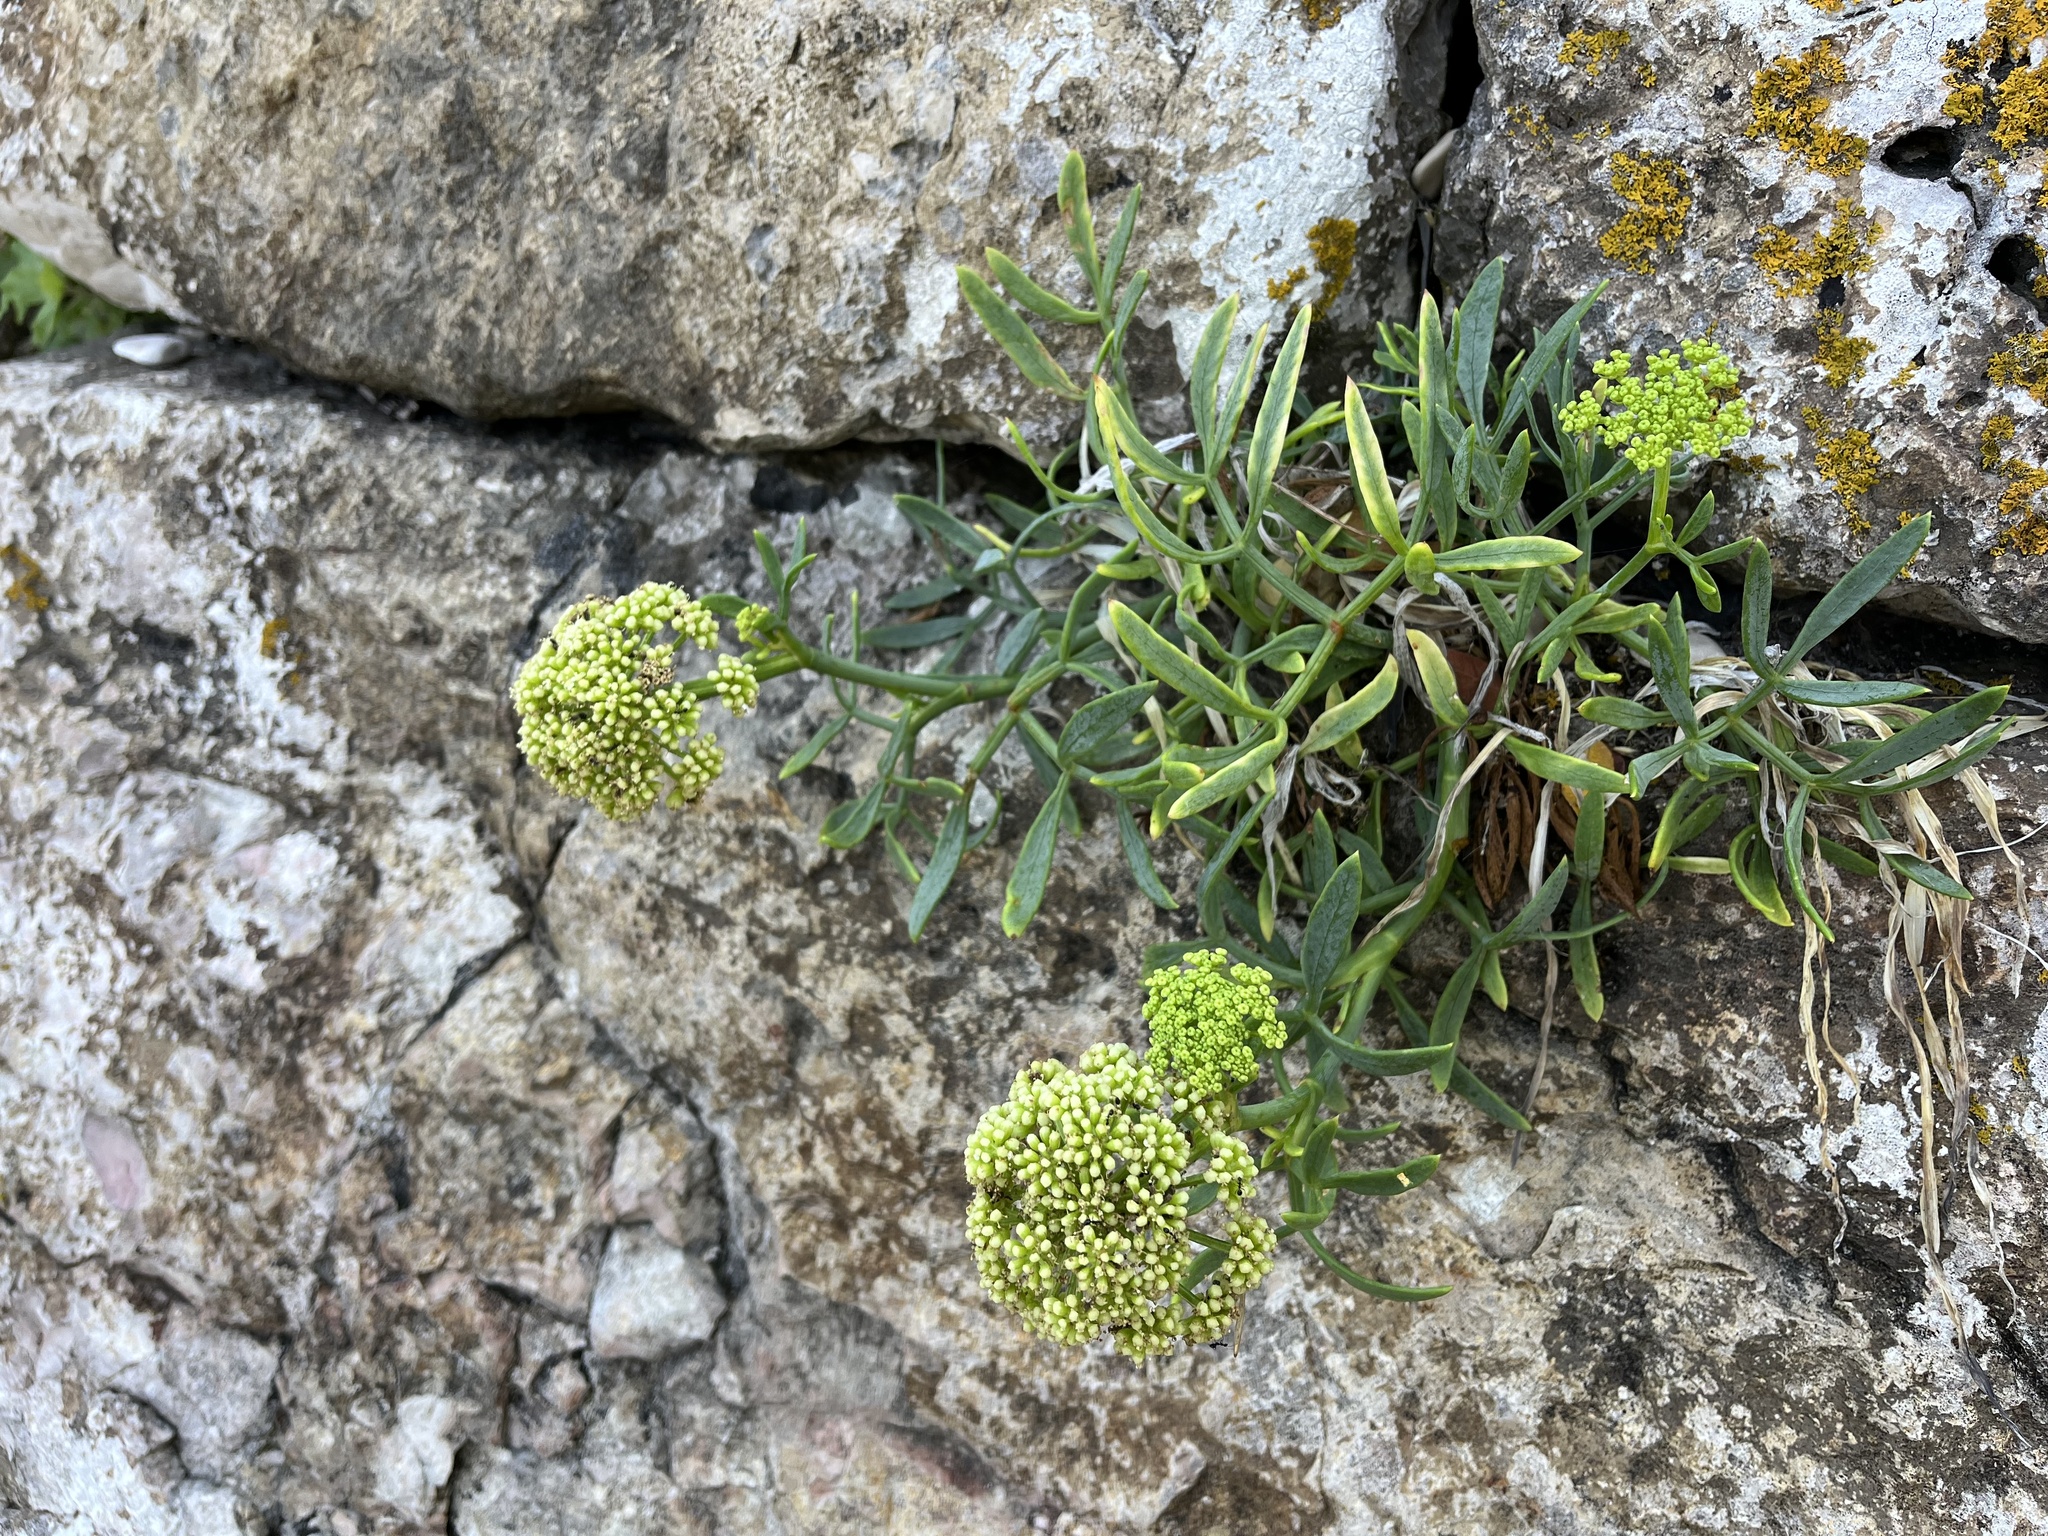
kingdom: Plantae
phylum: Tracheophyta
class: Magnoliopsida
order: Apiales
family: Apiaceae
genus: Crithmum
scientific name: Crithmum maritimum
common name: Rock samphire
